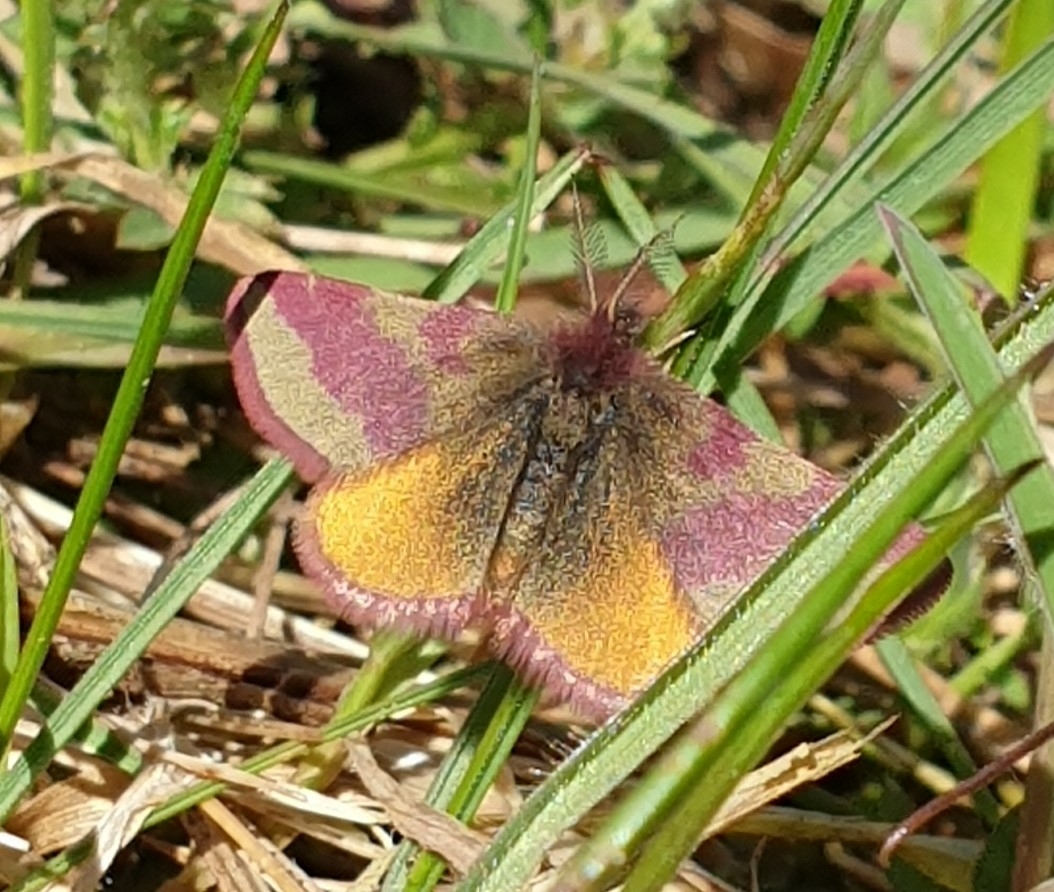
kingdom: Animalia
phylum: Arthropoda
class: Insecta
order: Lepidoptera
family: Geometridae
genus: Lythria
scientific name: Lythria cruentaria
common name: Purple-barred yellow
